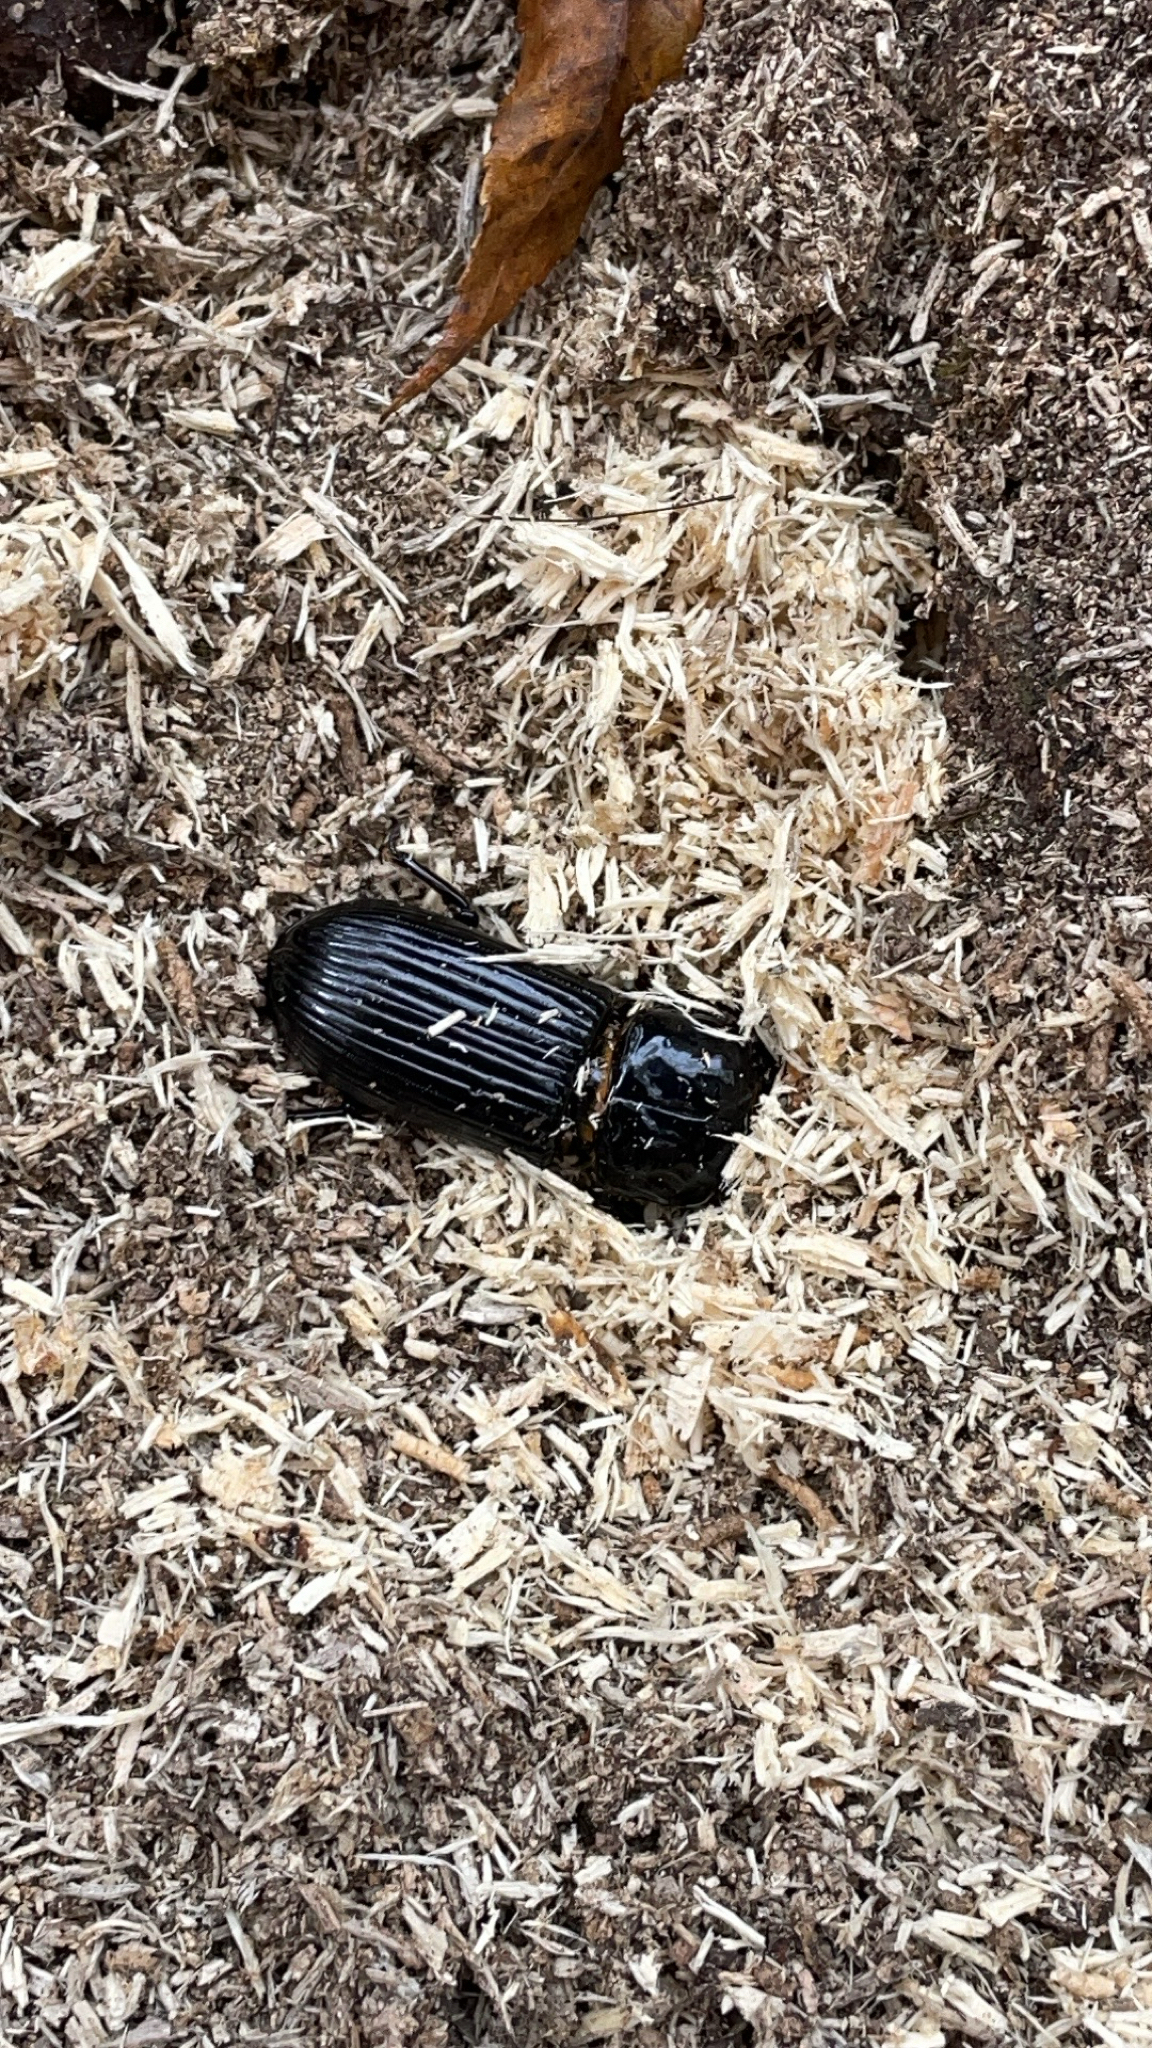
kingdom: Animalia
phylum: Arthropoda
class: Insecta
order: Coleoptera
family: Passalidae
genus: Odontotaenius
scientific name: Odontotaenius disjunctus
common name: Patent leather beetle
